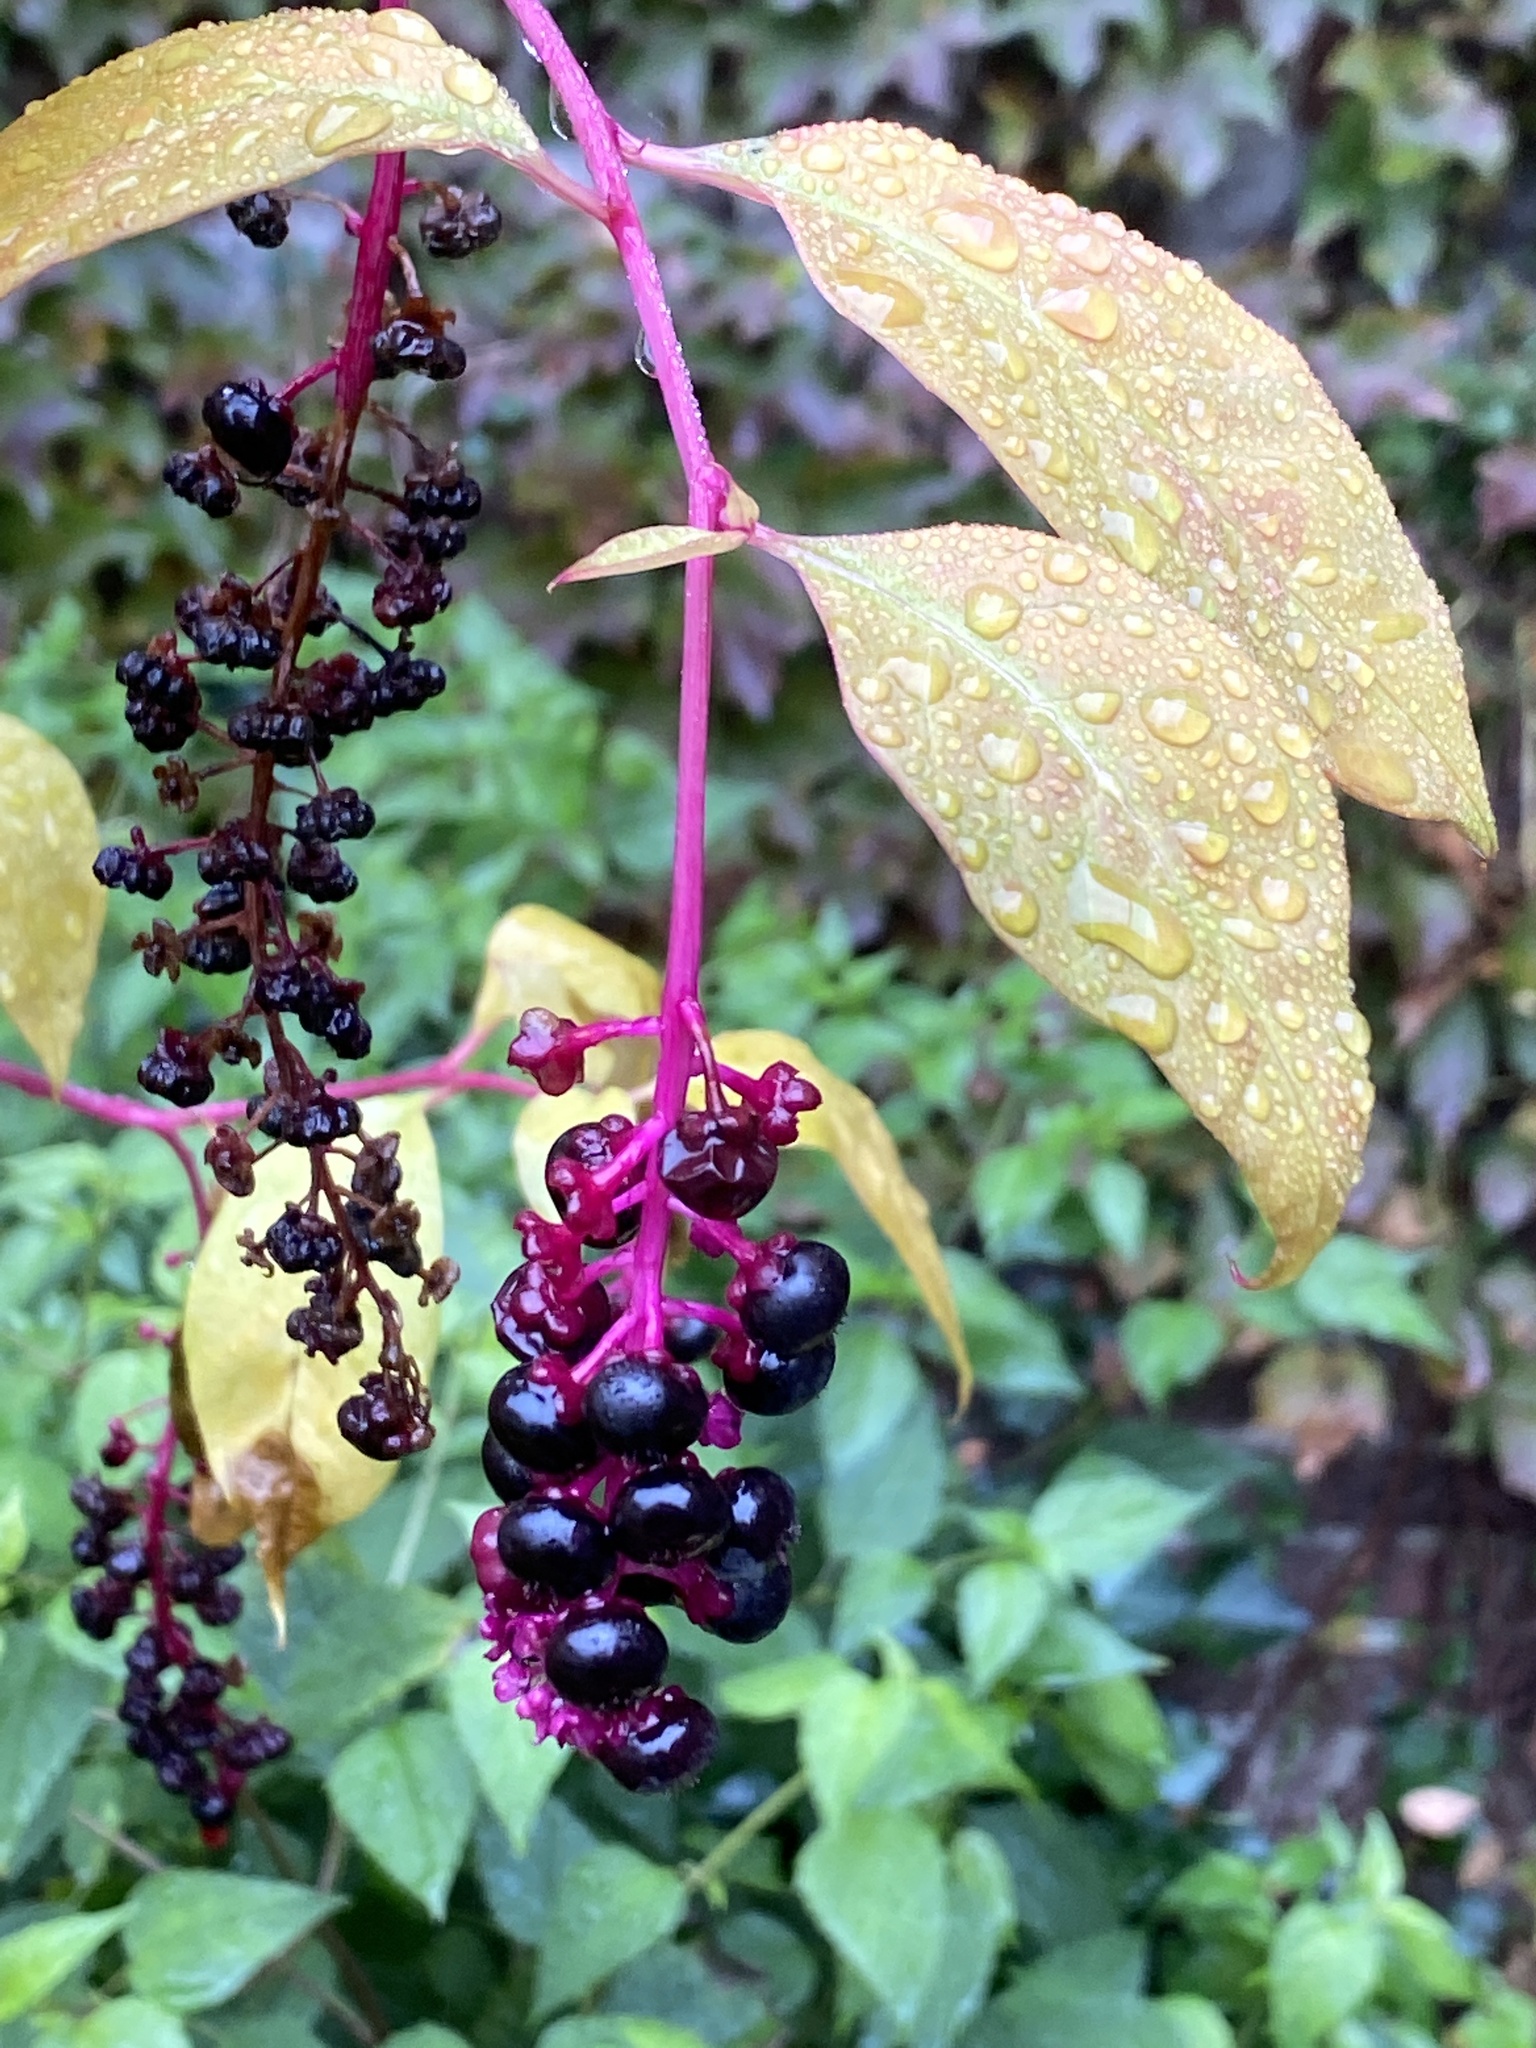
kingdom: Plantae
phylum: Tracheophyta
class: Magnoliopsida
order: Caryophyllales
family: Phytolaccaceae
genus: Phytolacca
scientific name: Phytolacca americana
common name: American pokeweed
